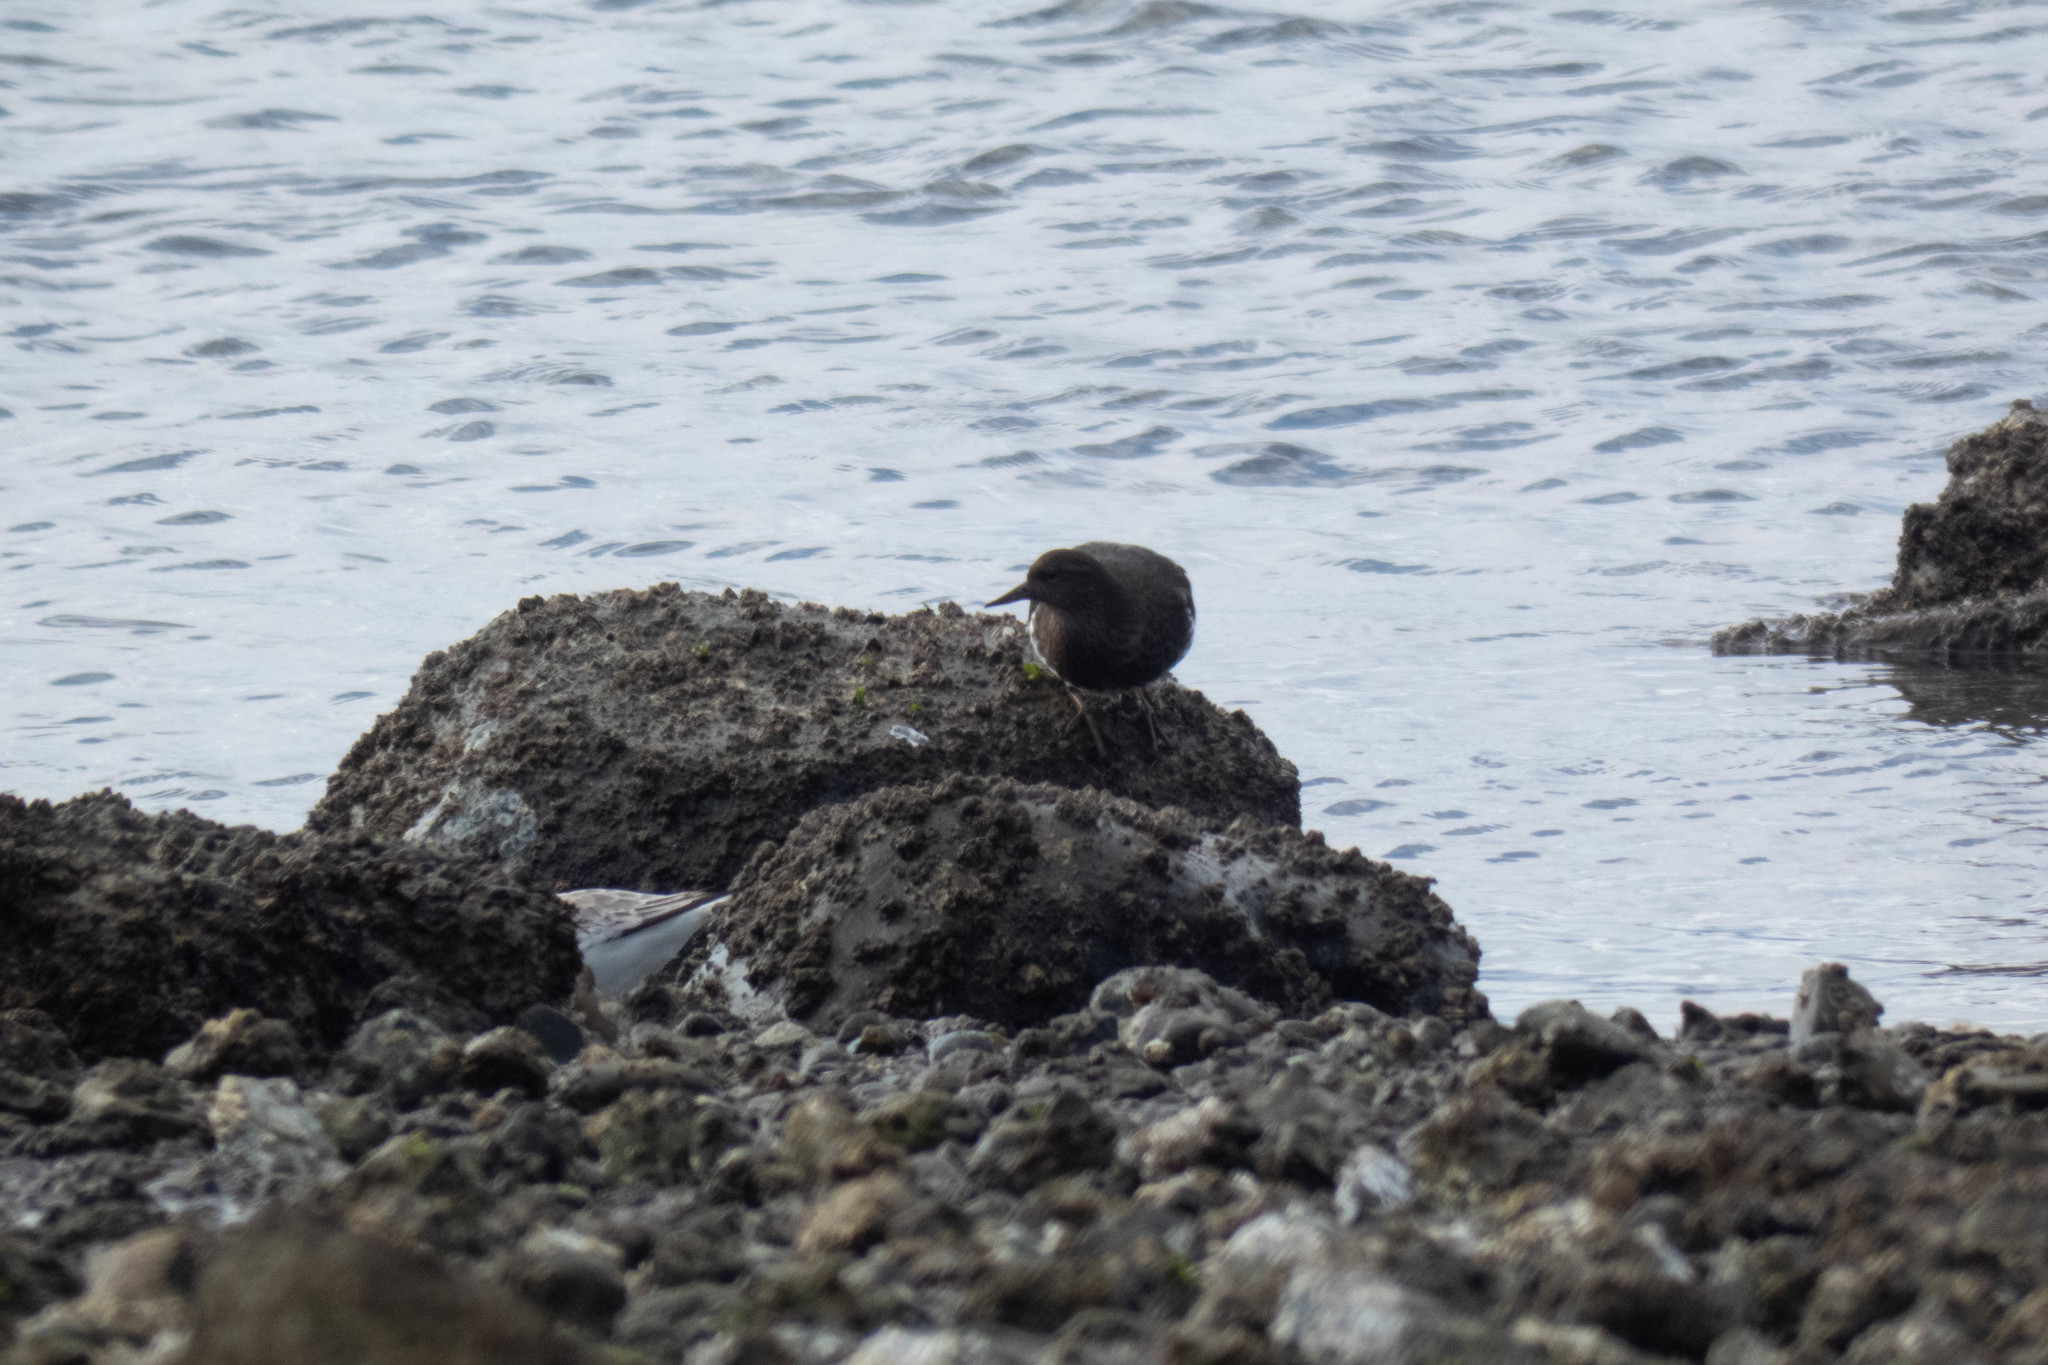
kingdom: Animalia
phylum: Chordata
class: Aves
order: Charadriiformes
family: Scolopacidae
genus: Arenaria
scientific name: Arenaria melanocephala
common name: Black turnstone
